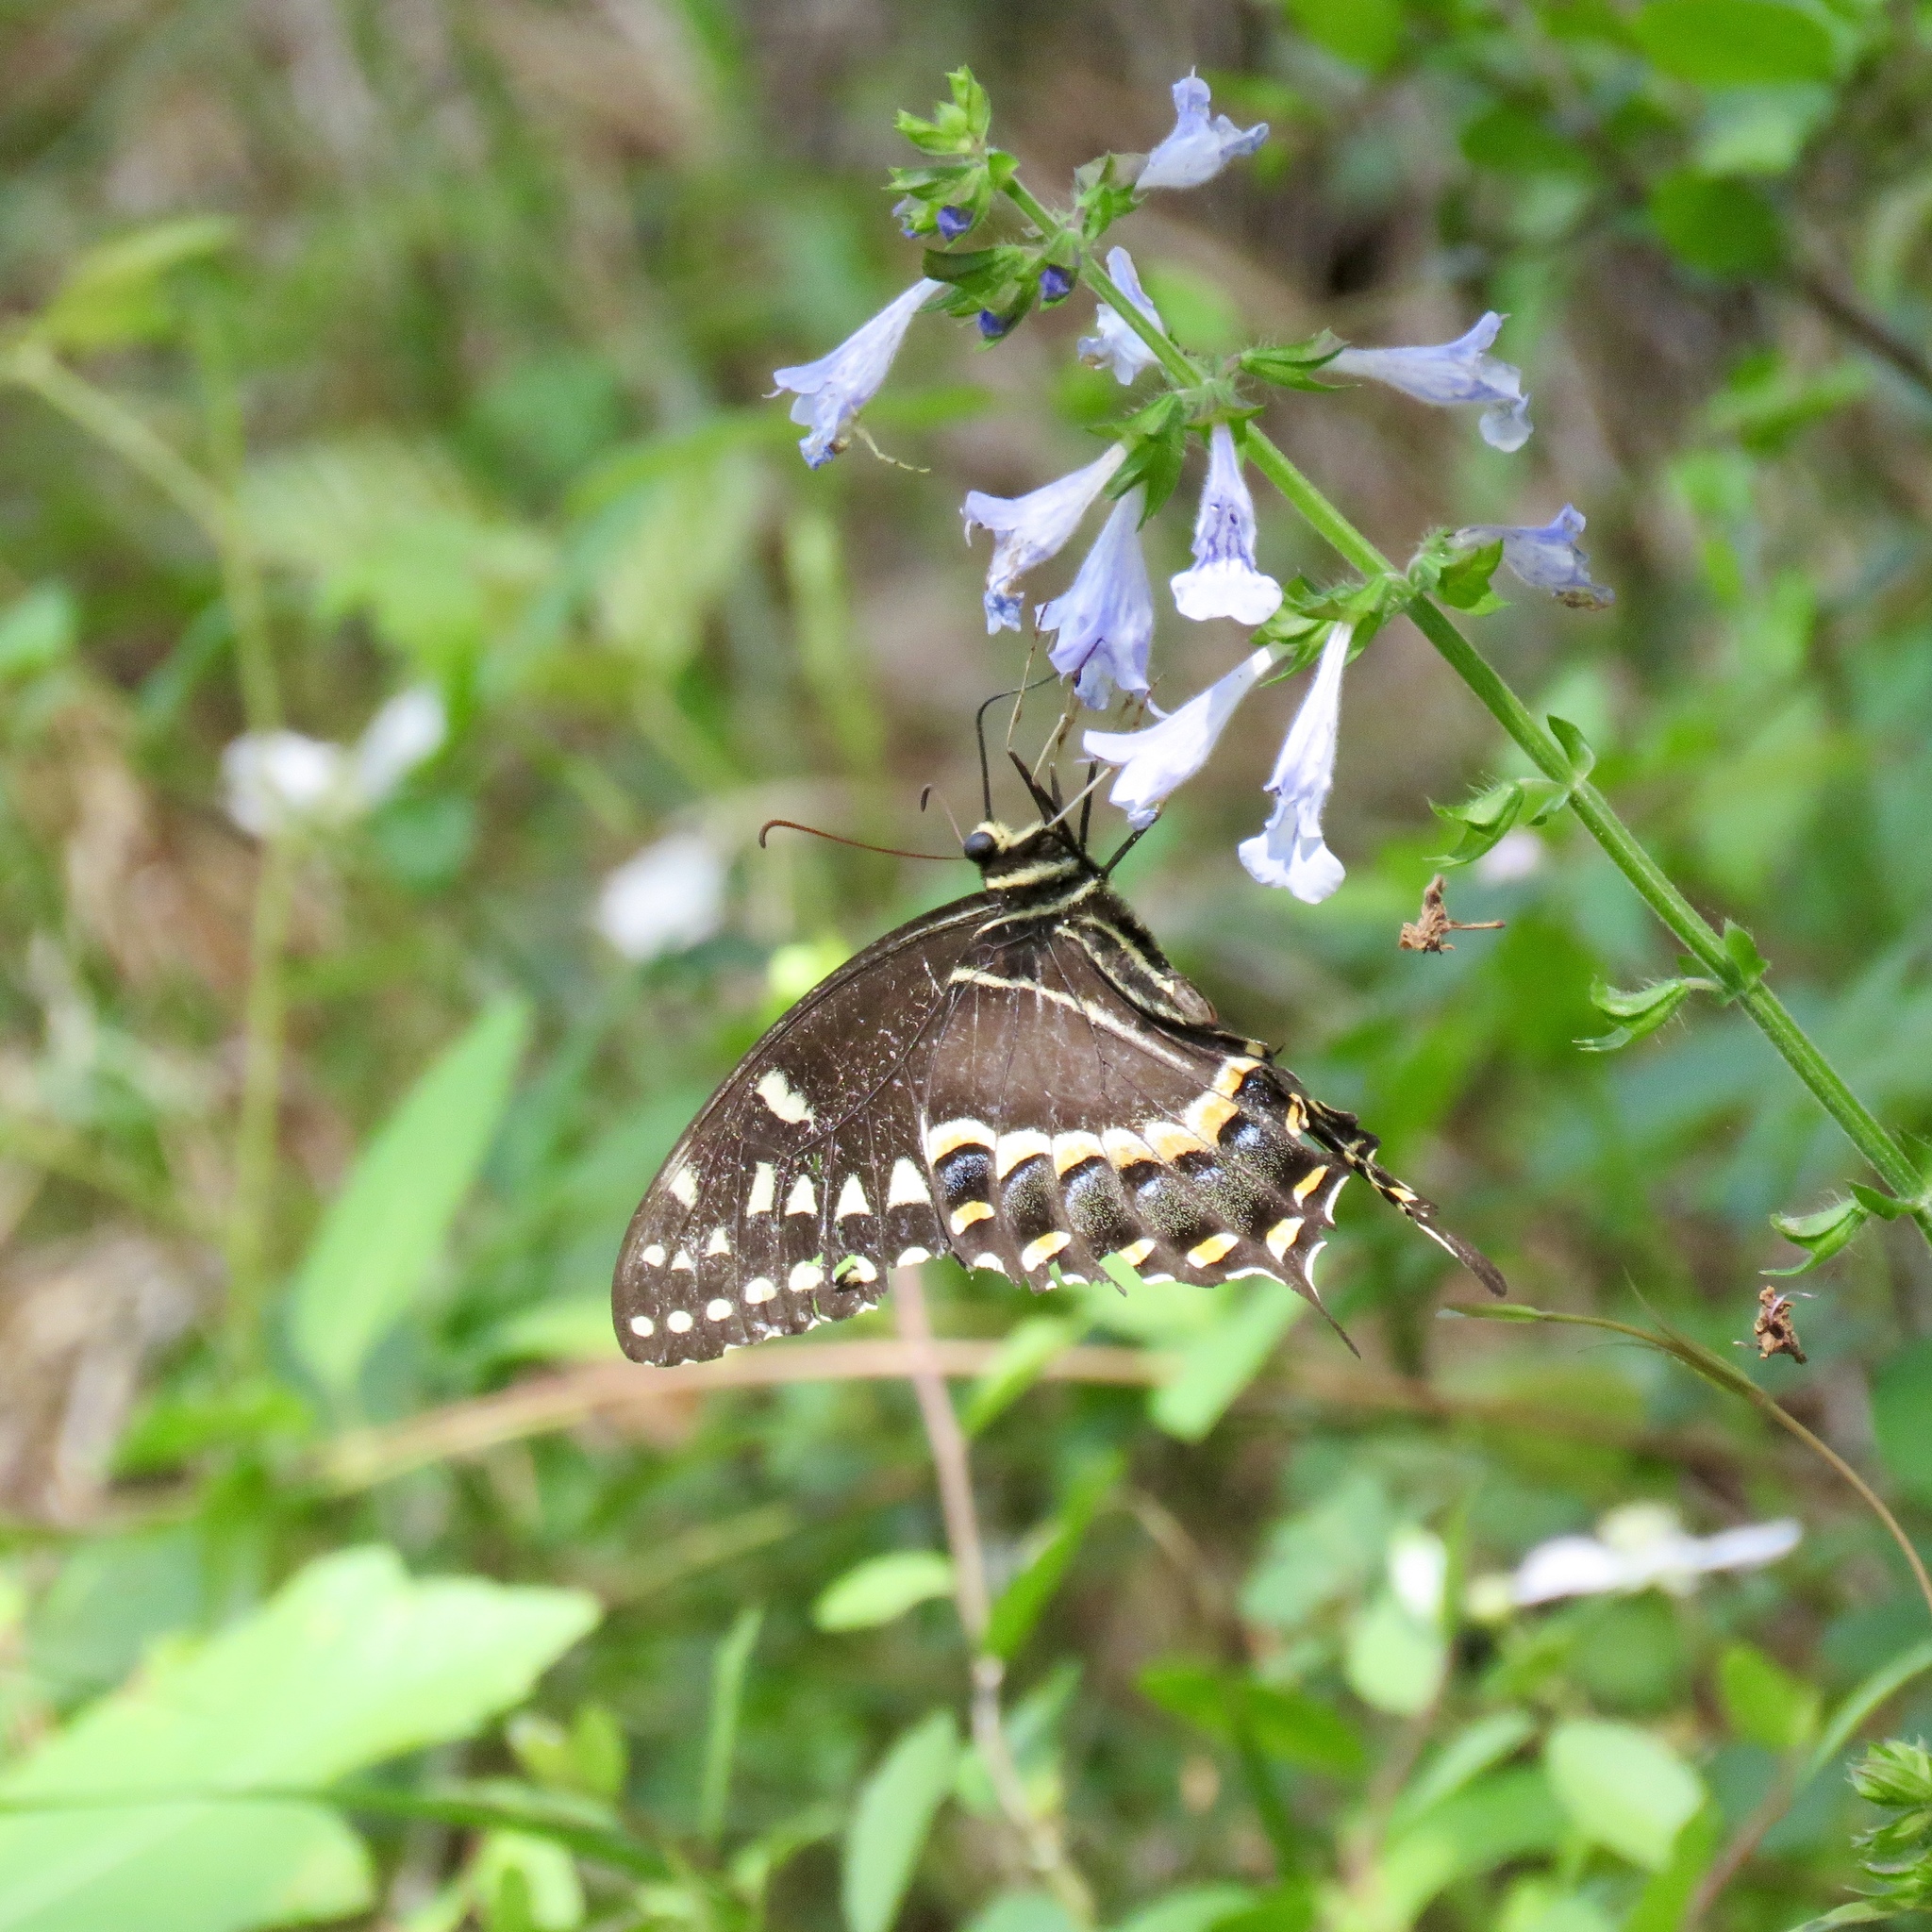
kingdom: Animalia
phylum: Arthropoda
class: Insecta
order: Lepidoptera
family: Papilionidae
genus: Papilio
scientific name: Papilio palamedes
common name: Palamedes swallowtail
